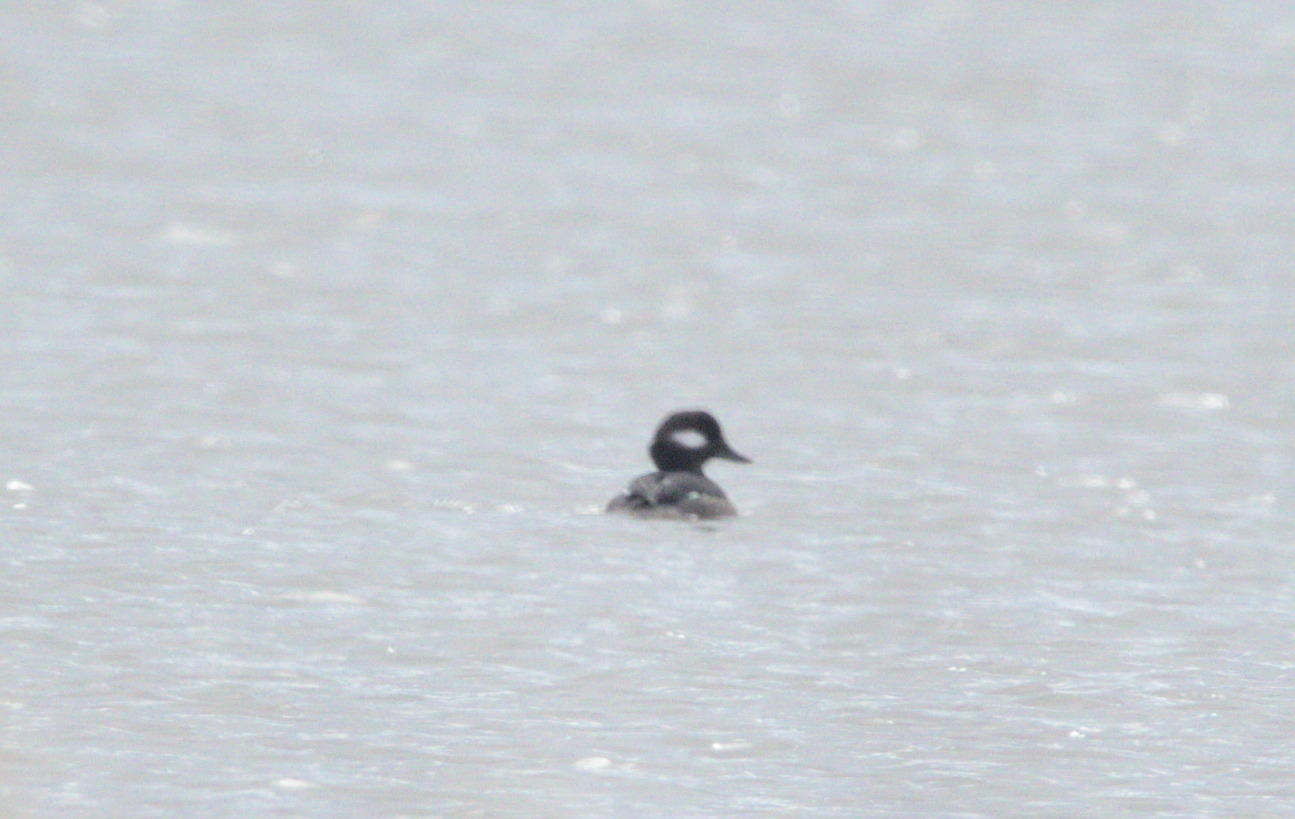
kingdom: Animalia
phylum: Chordata
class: Aves
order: Anseriformes
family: Anatidae
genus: Bucephala
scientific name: Bucephala albeola
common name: Bufflehead
